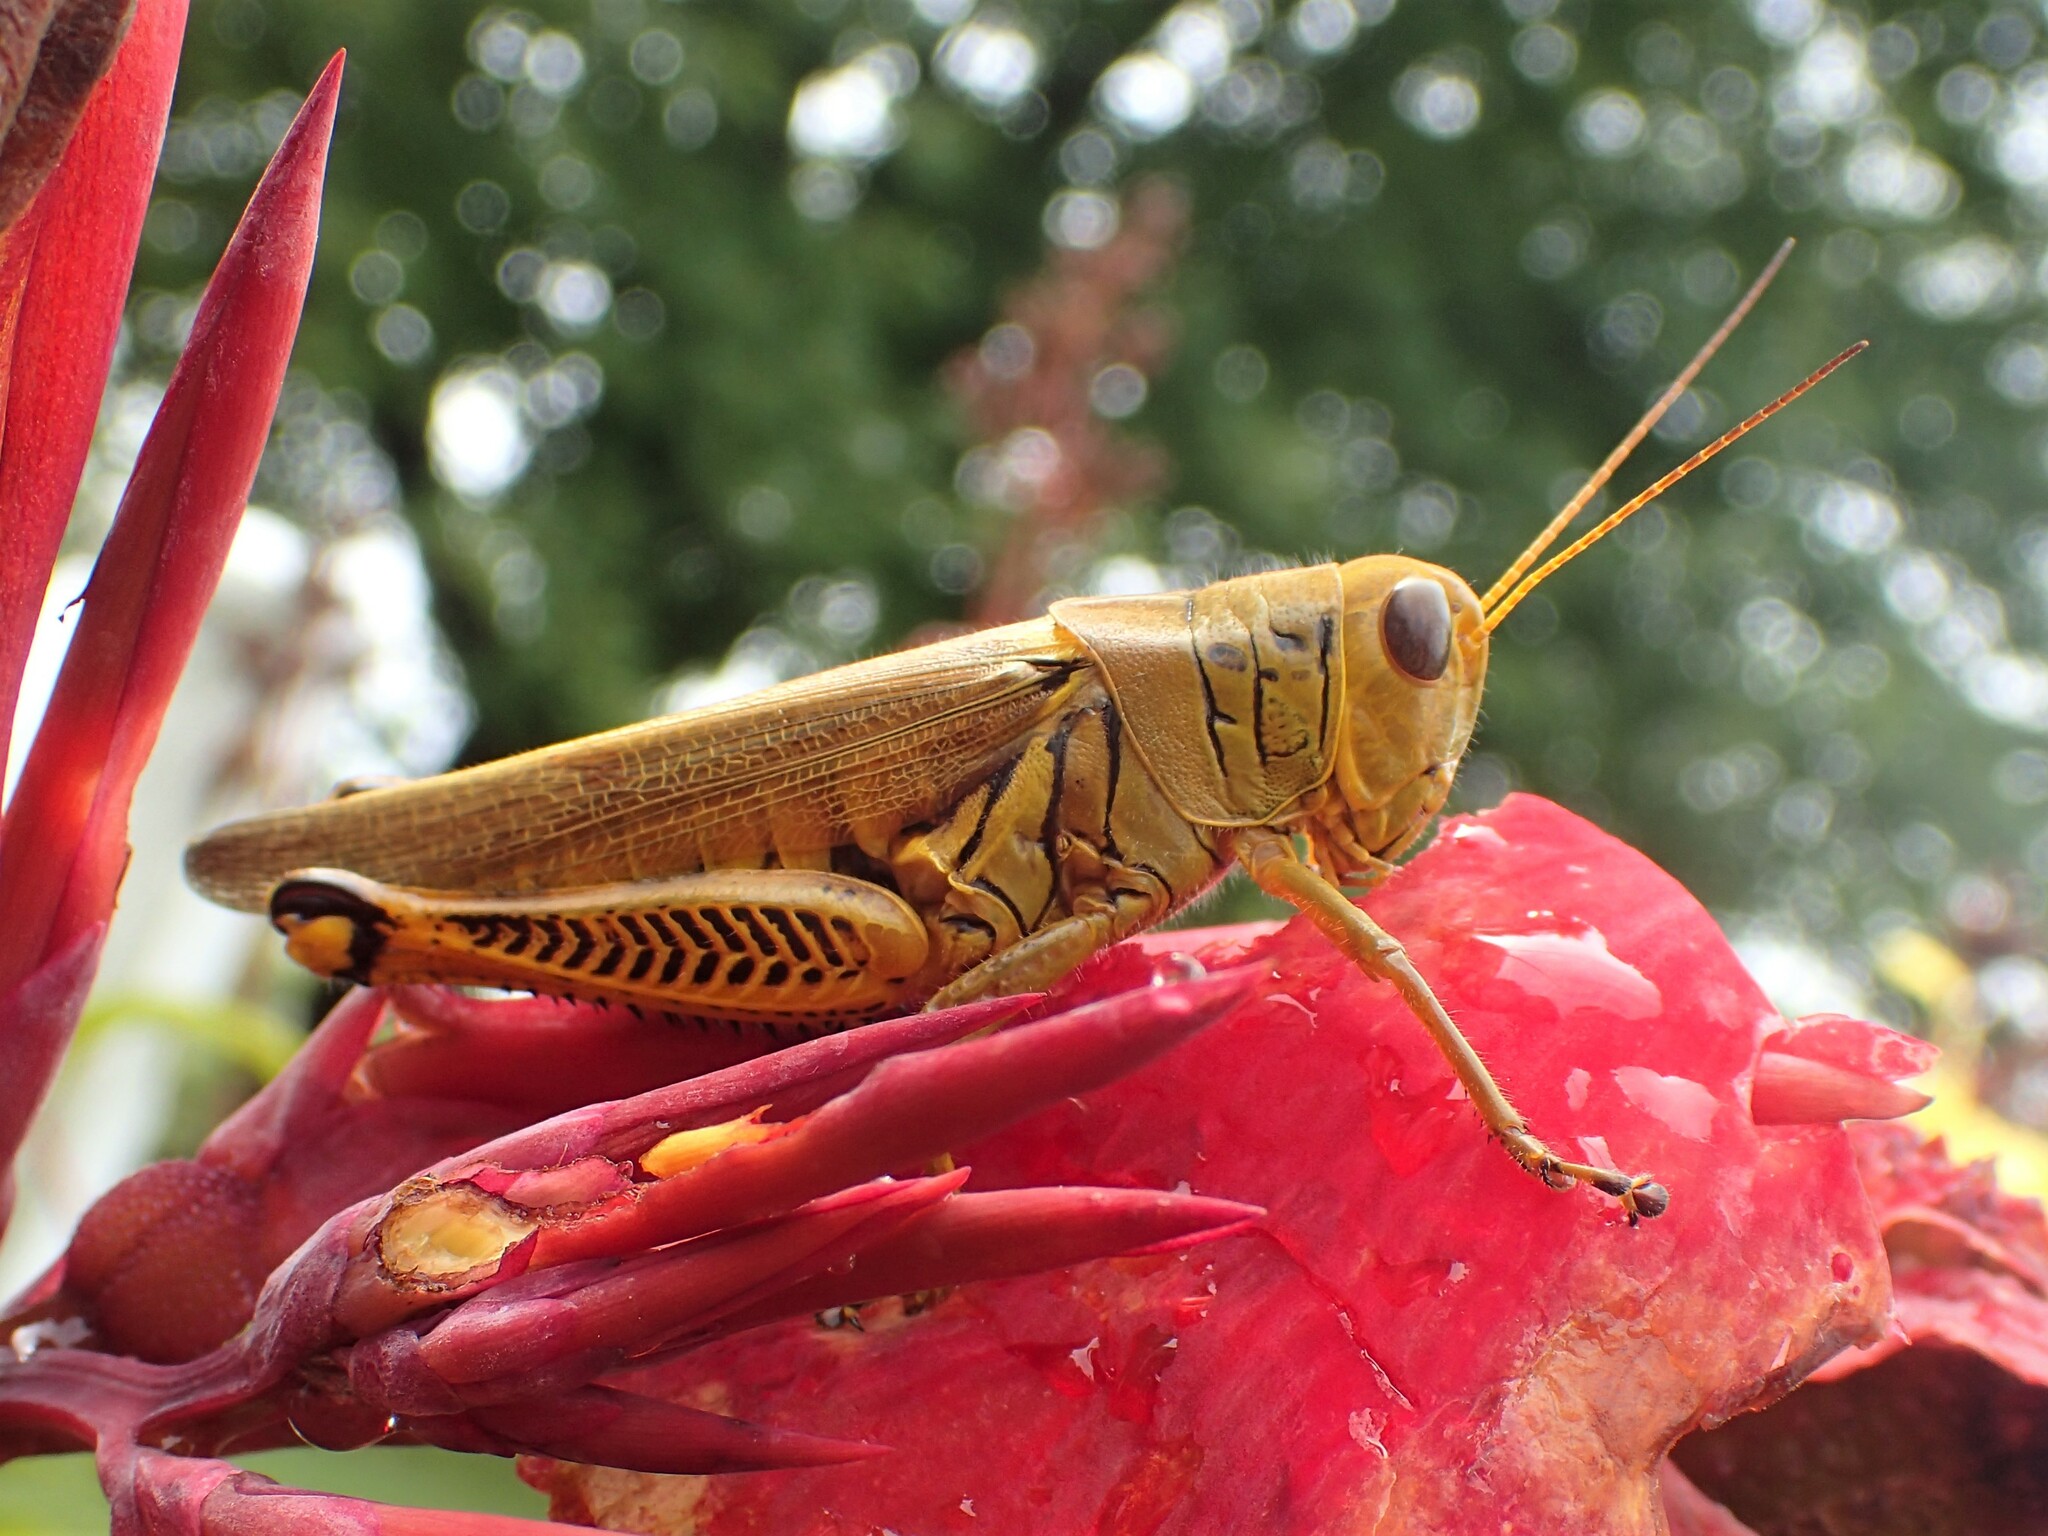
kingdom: Animalia
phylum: Arthropoda
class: Insecta
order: Orthoptera
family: Acrididae
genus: Melanoplus
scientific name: Melanoplus differentialis
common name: Differential grasshopper
